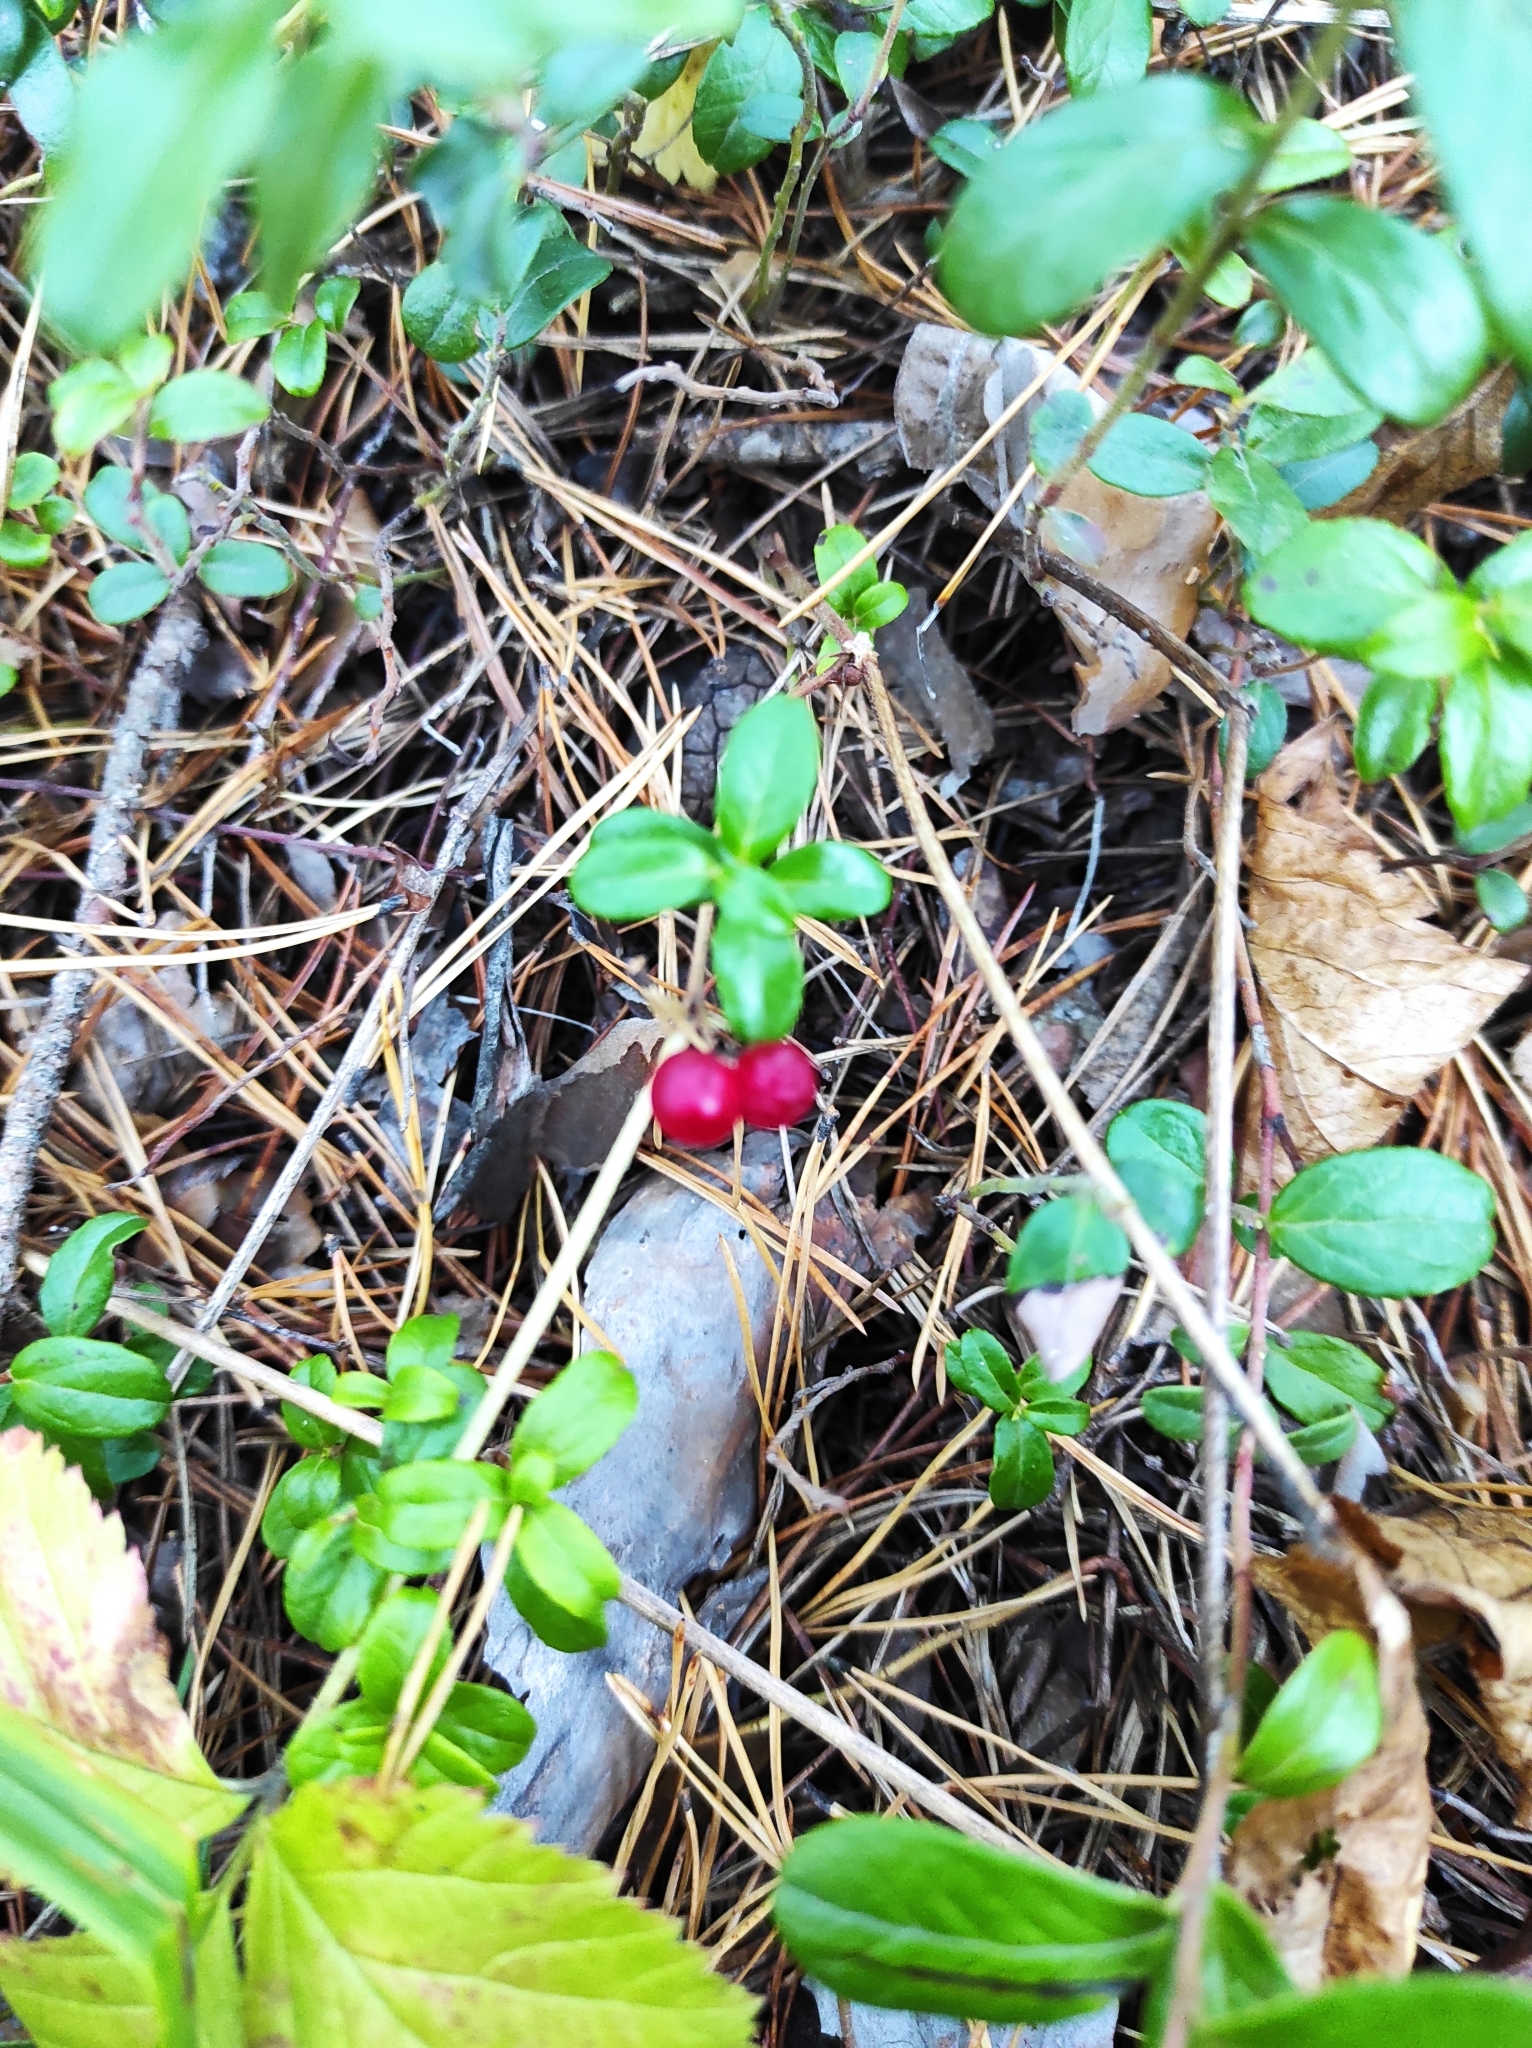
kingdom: Plantae
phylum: Tracheophyta
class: Magnoliopsida
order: Ericales
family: Ericaceae
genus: Vaccinium
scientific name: Vaccinium vitis-idaea
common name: Cowberry
